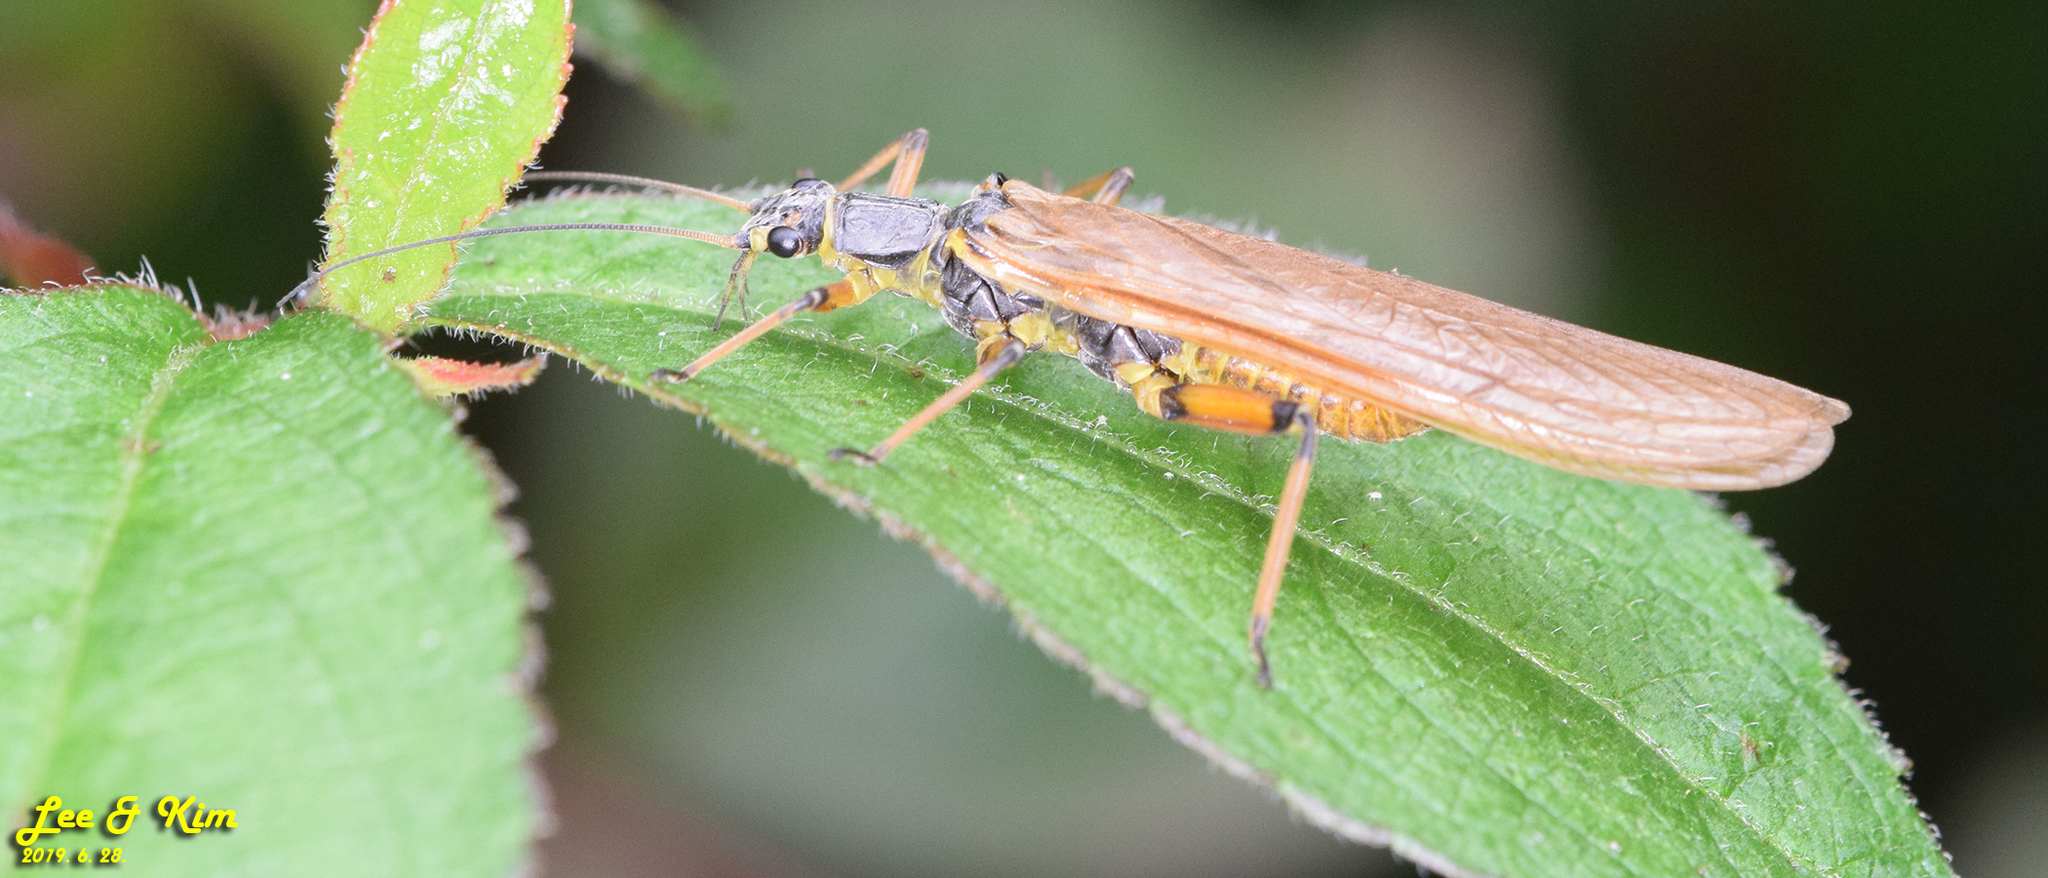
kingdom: Animalia
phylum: Arthropoda
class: Insecta
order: Plecoptera
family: Perlidae
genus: Oyamia
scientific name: Oyamia nigribasis
